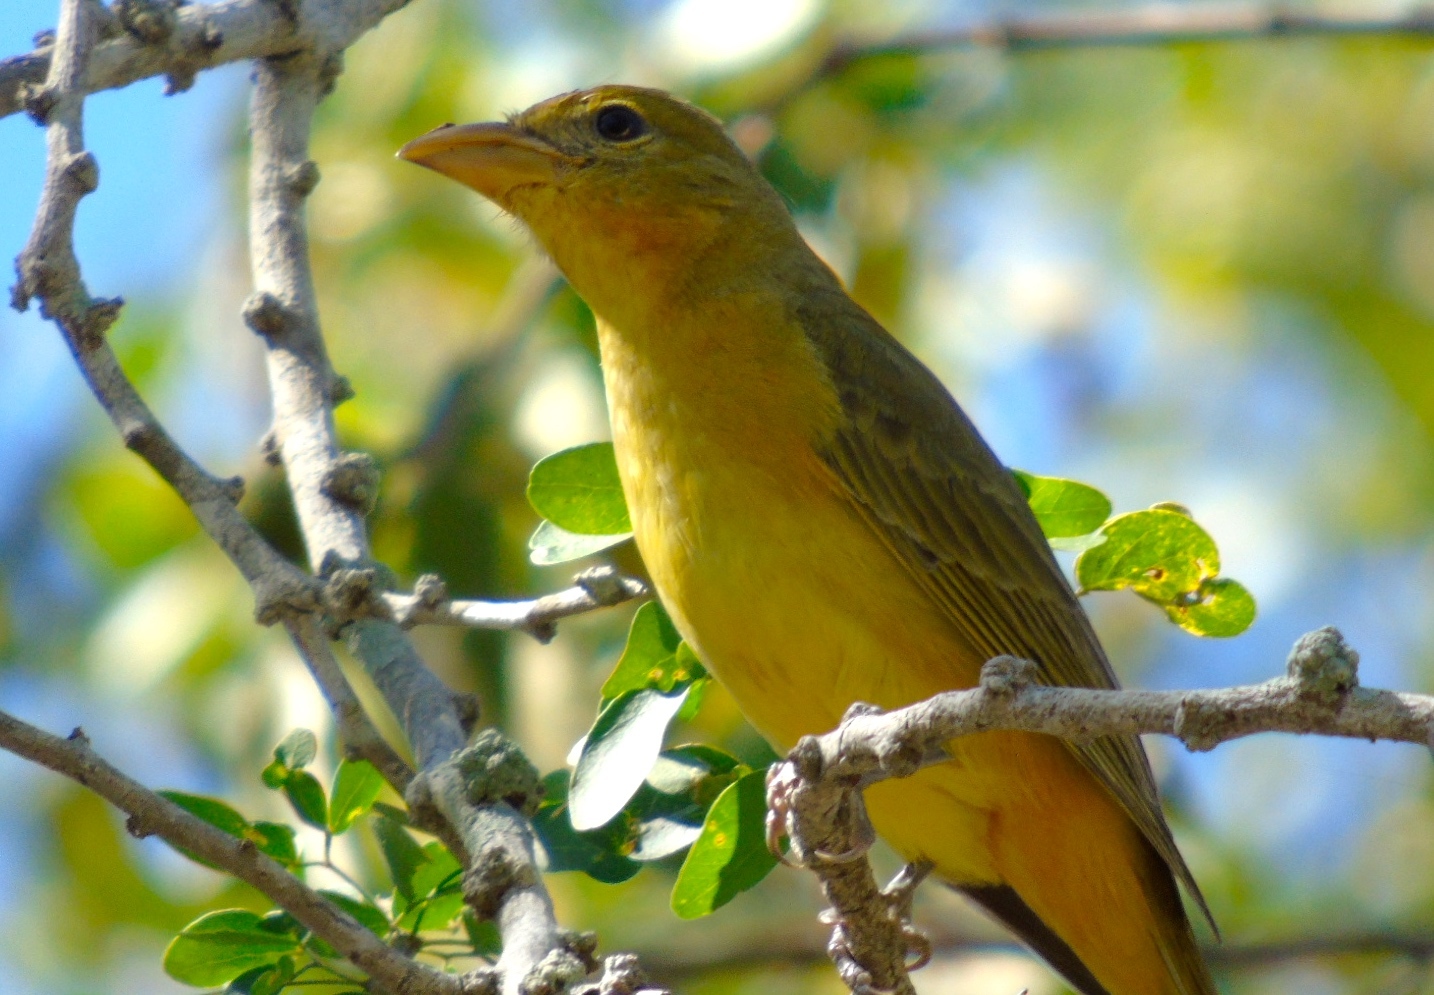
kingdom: Animalia
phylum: Chordata
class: Aves
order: Passeriformes
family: Cardinalidae
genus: Piranga
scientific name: Piranga rubra
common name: Summer tanager
